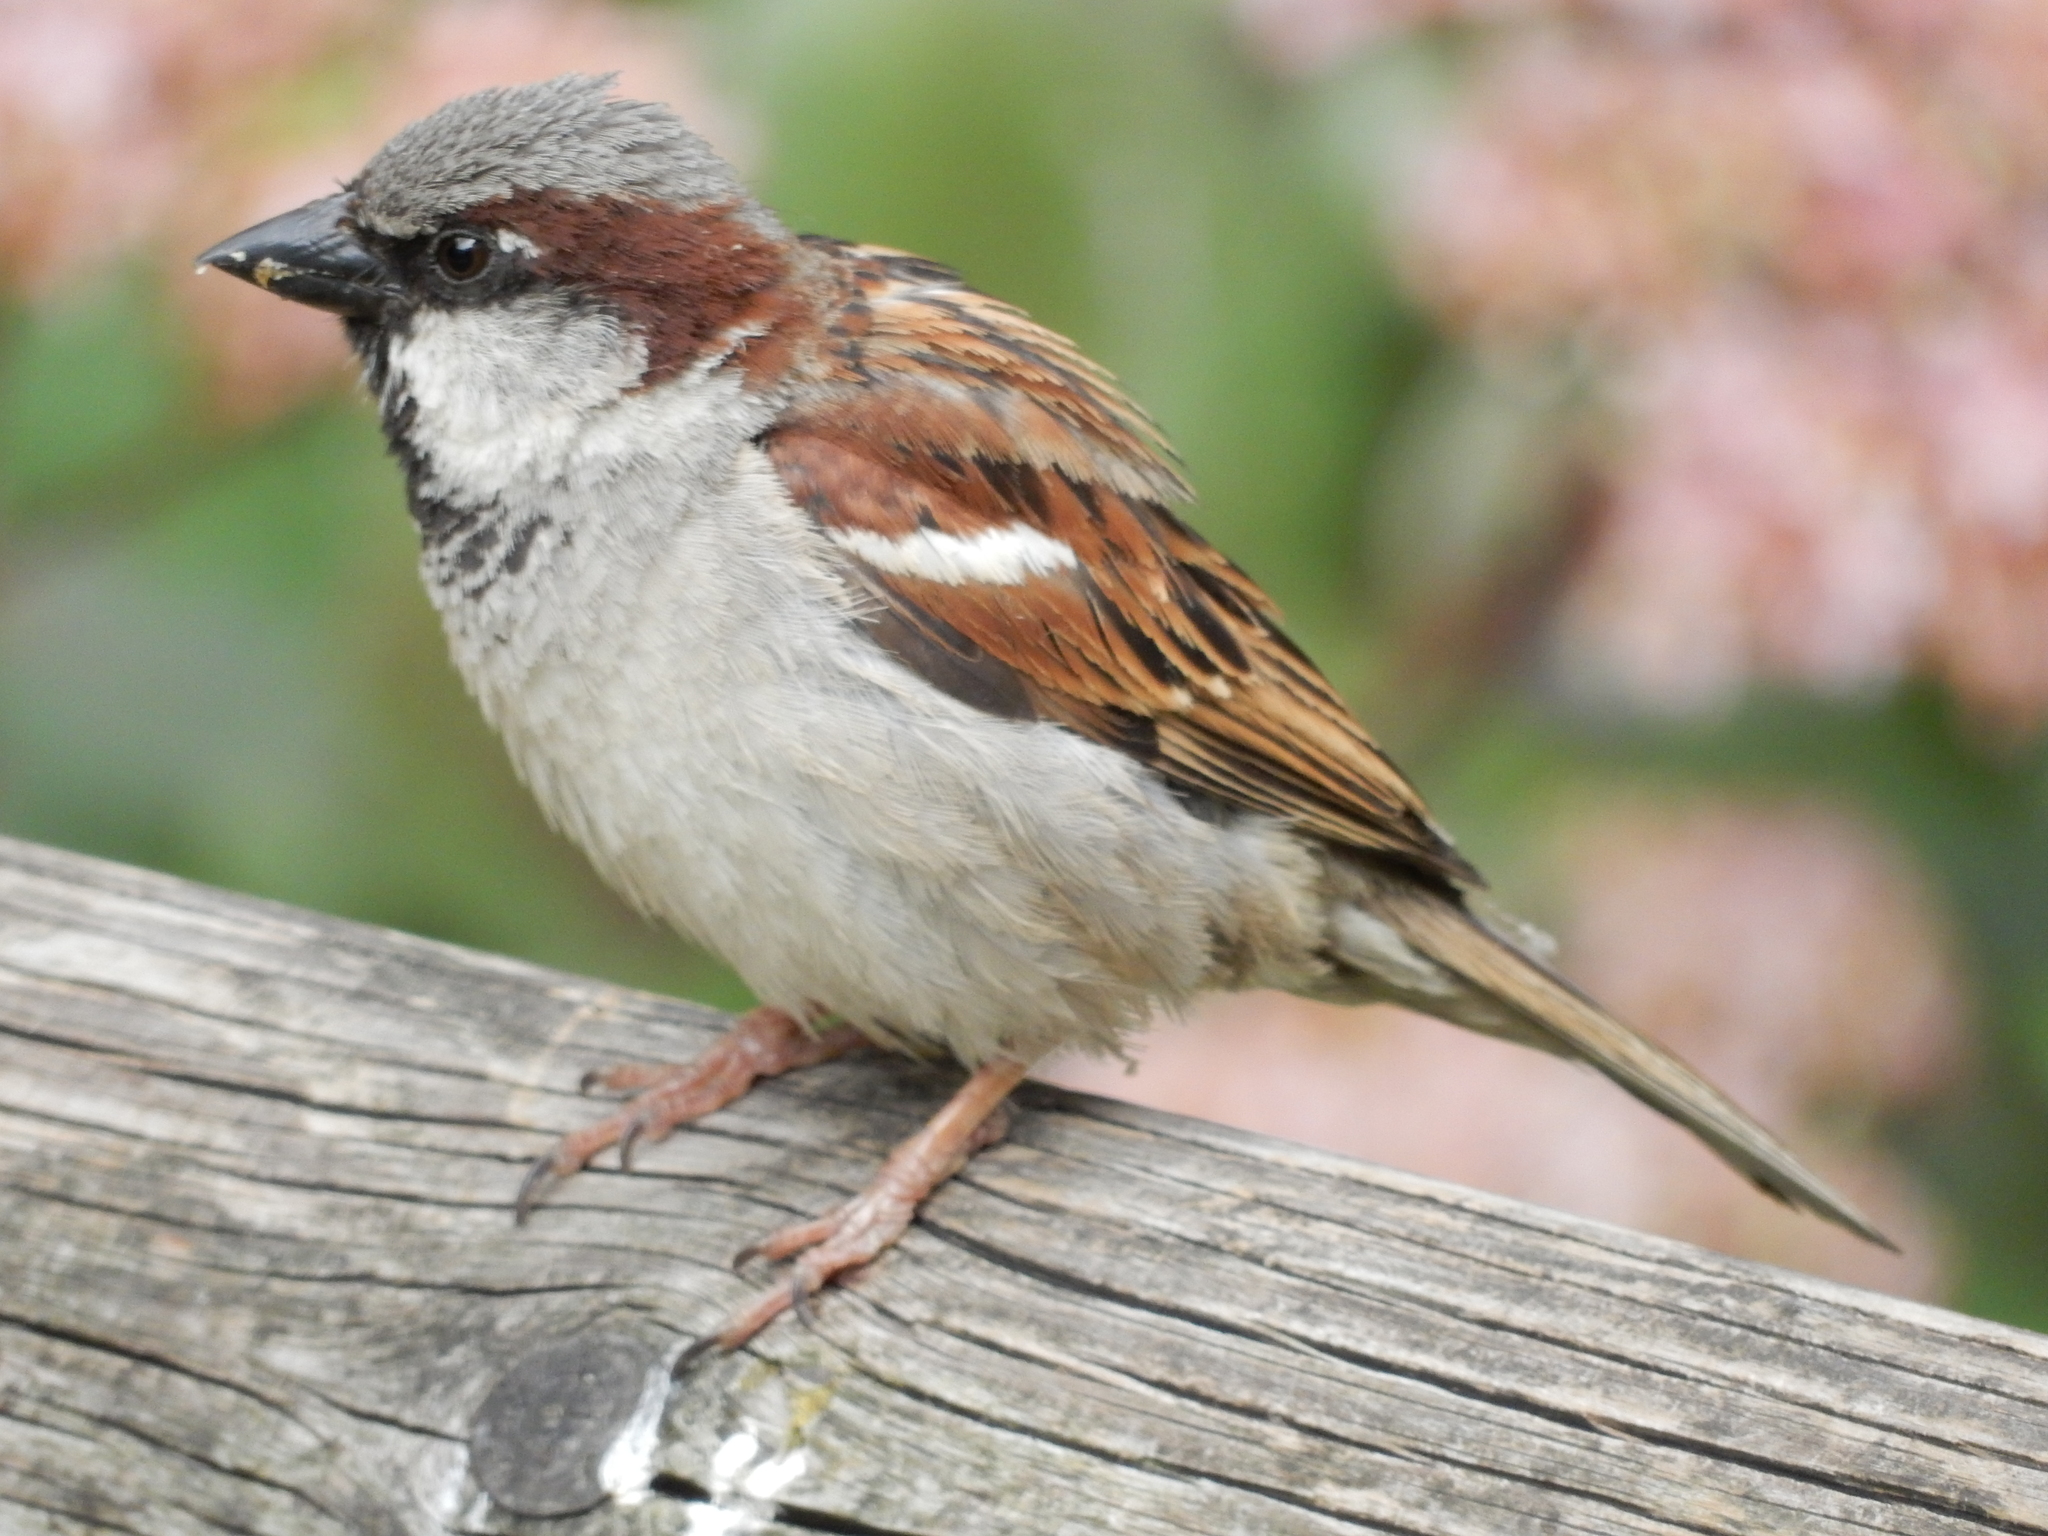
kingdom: Animalia
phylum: Chordata
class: Aves
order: Passeriformes
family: Passeridae
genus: Passer
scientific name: Passer domesticus
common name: House sparrow
